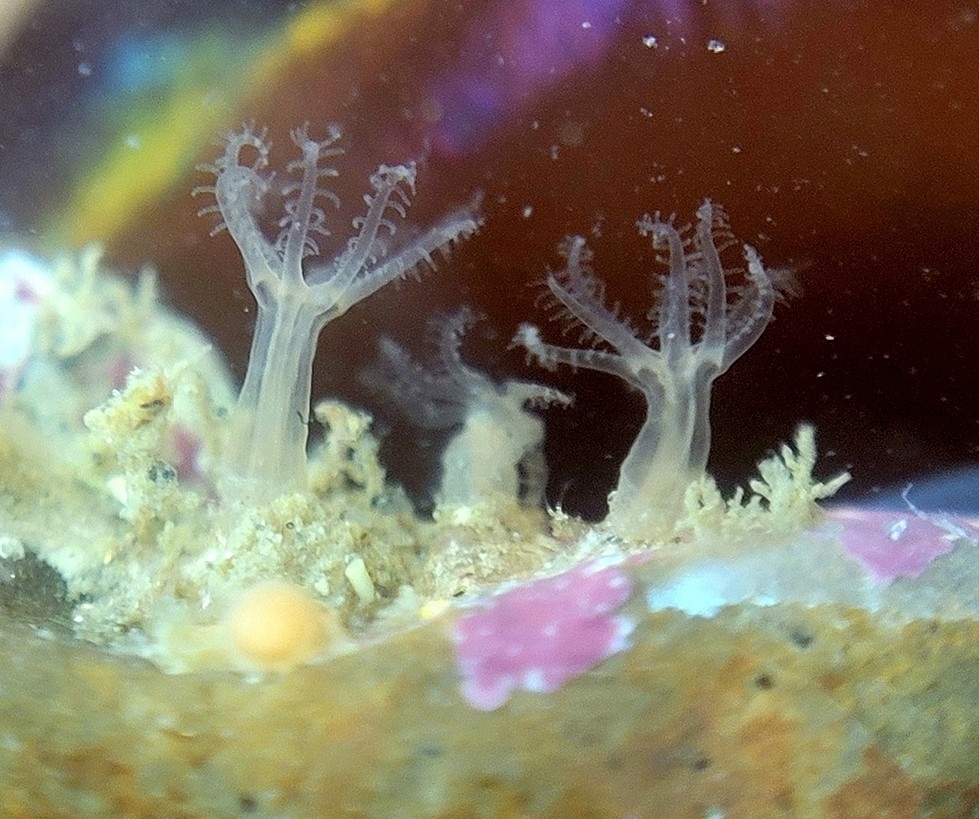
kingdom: Animalia
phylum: Cnidaria
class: Anthozoa
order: Malacalcyonacea
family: Carijoidae
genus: Cryptophyton
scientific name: Cryptophyton goddardi
